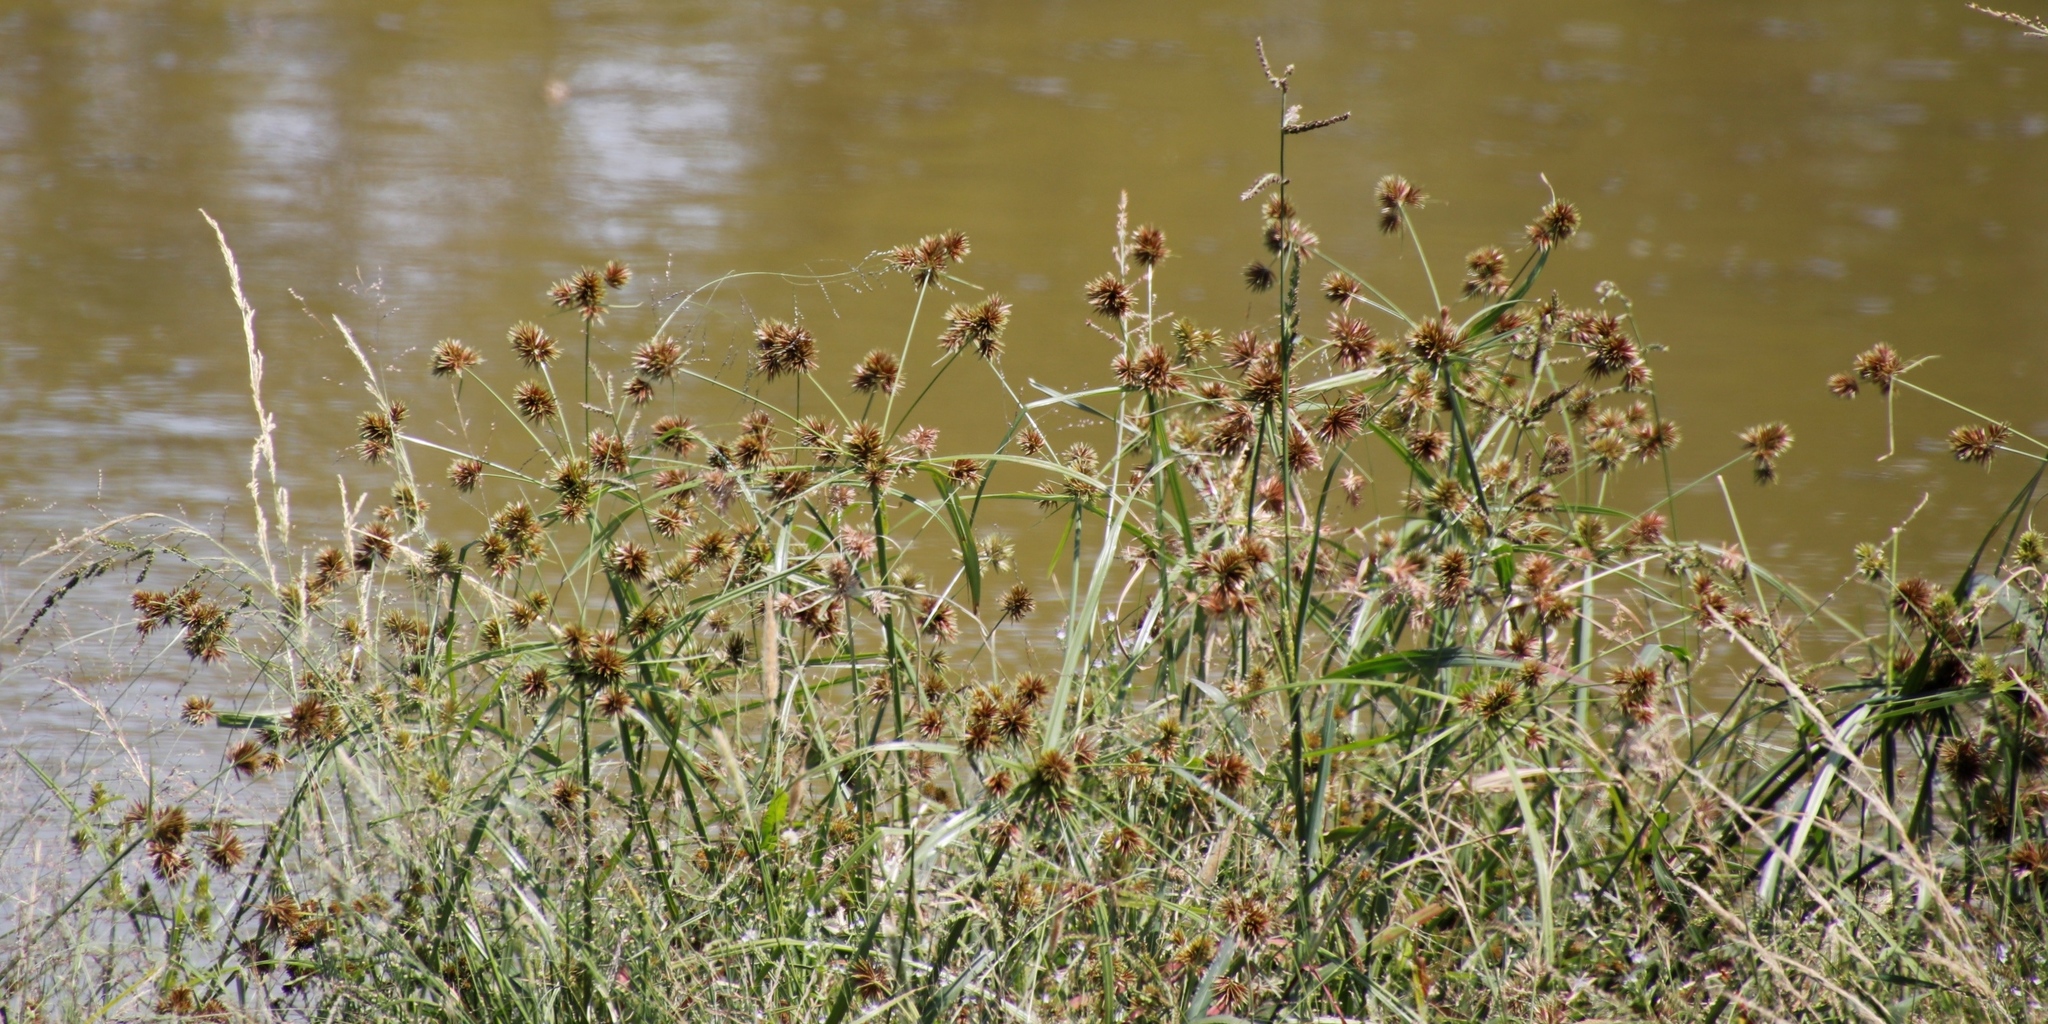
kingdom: Plantae
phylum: Tracheophyta
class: Liliopsida
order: Poales
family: Cyperaceae
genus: Cyperus
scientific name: Cyperus congestus
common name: Dense flat sedge
